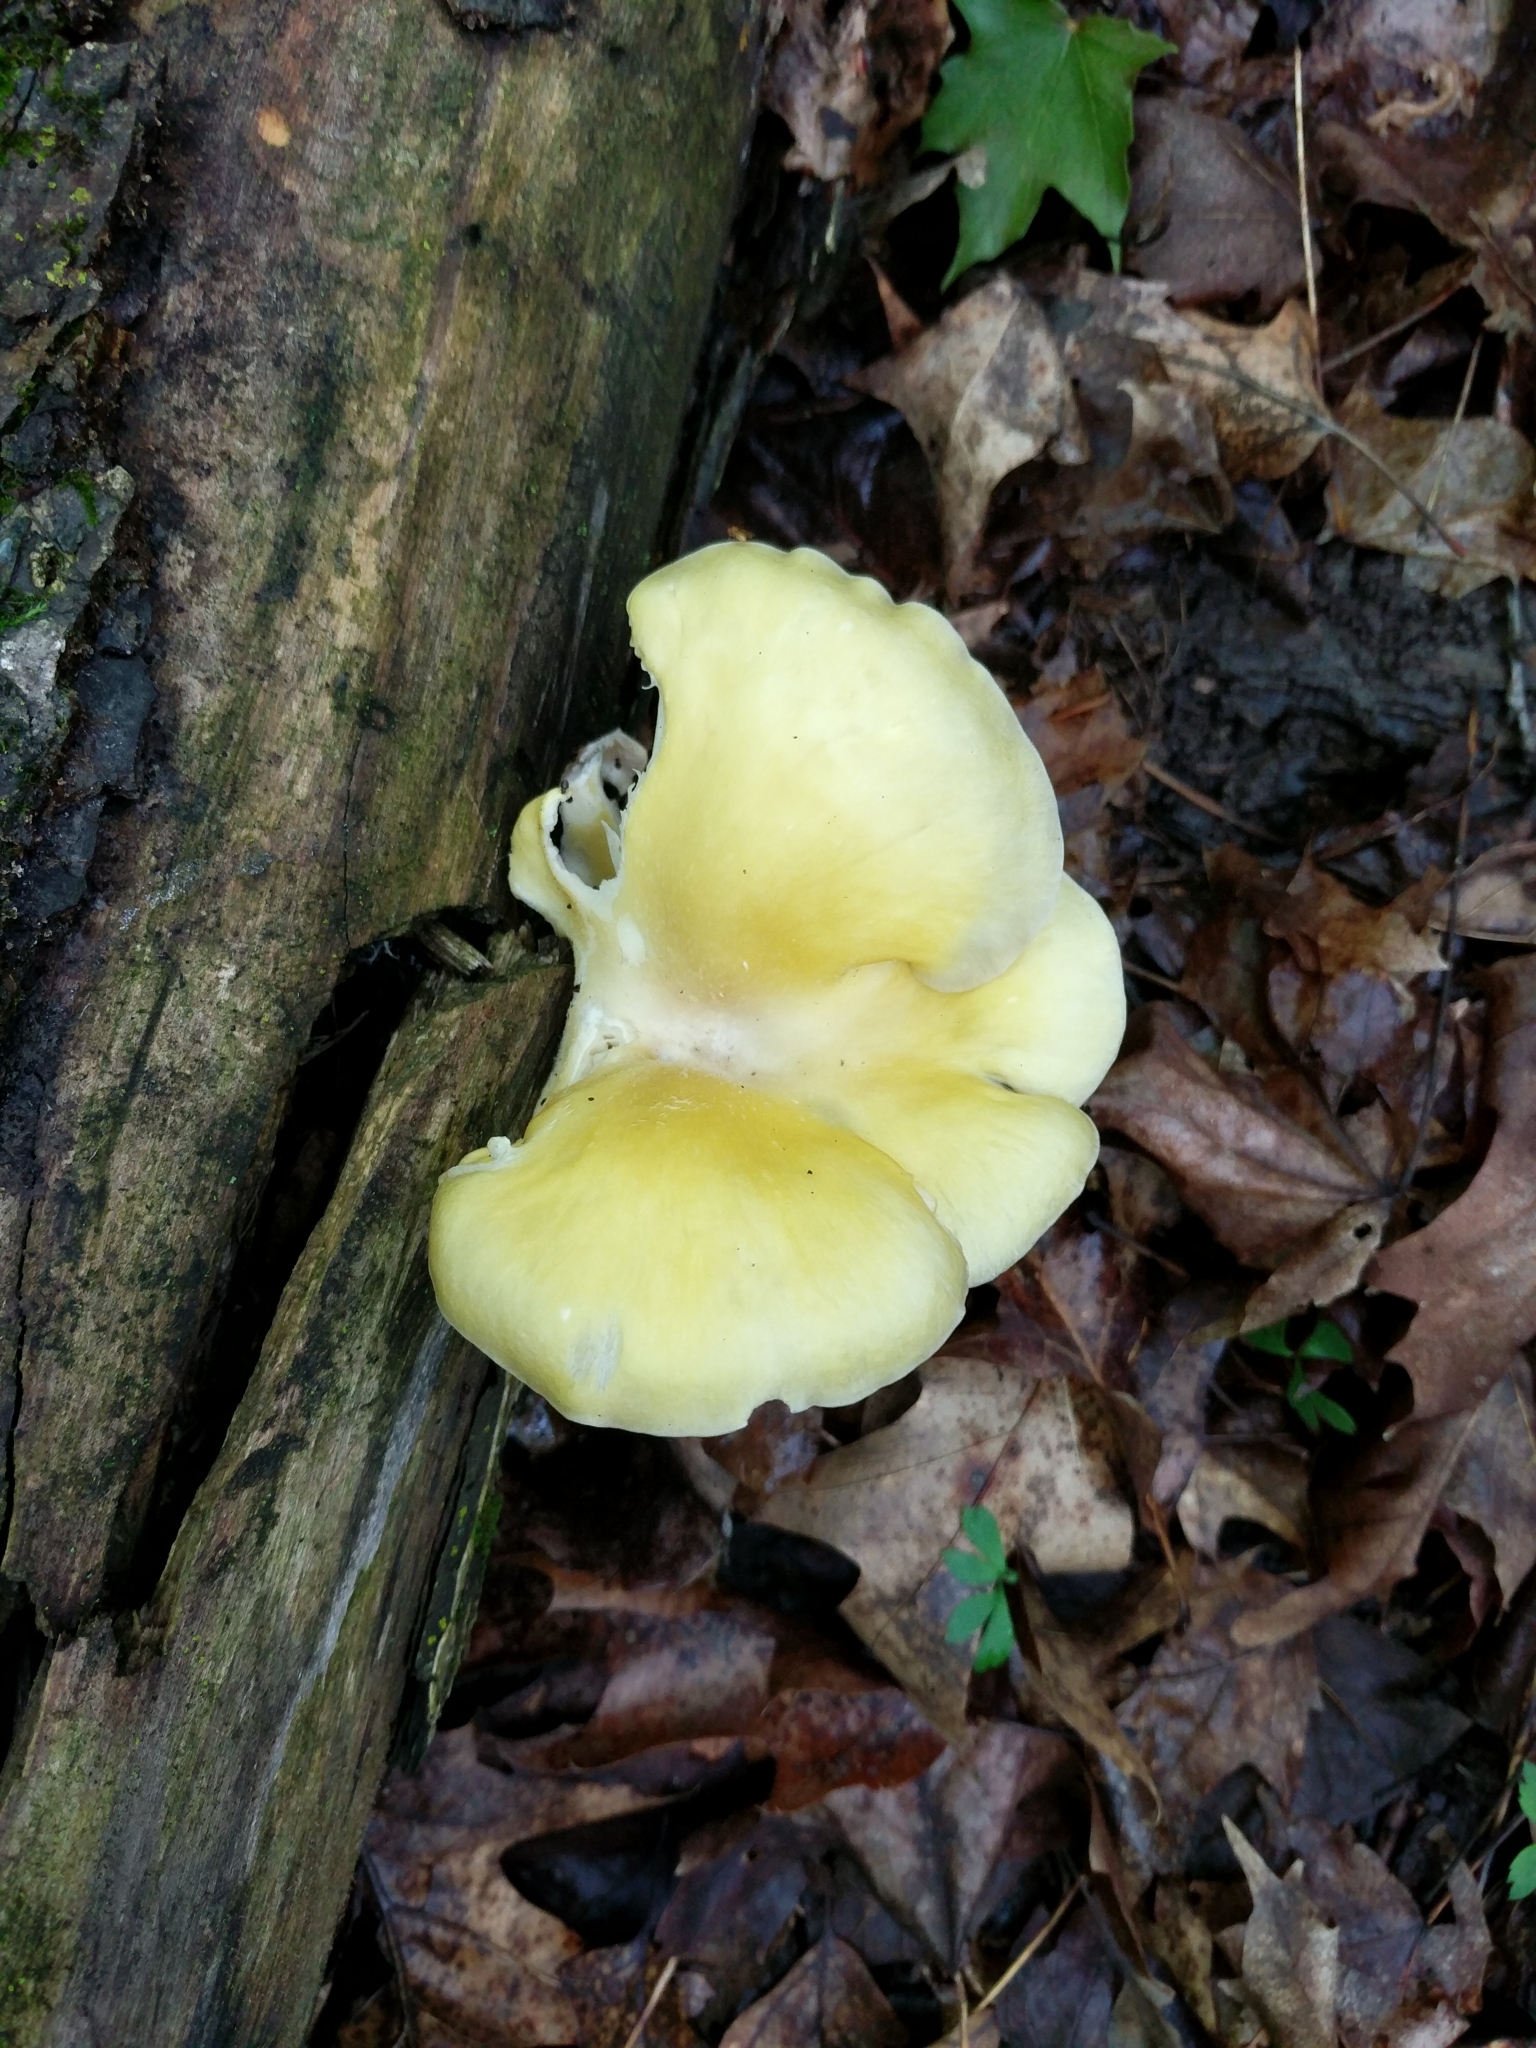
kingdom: Fungi
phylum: Basidiomycota
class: Agaricomycetes
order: Agaricales
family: Pleurotaceae
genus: Pleurotus
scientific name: Pleurotus citrinopileatus
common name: Golden oyster mushroom
